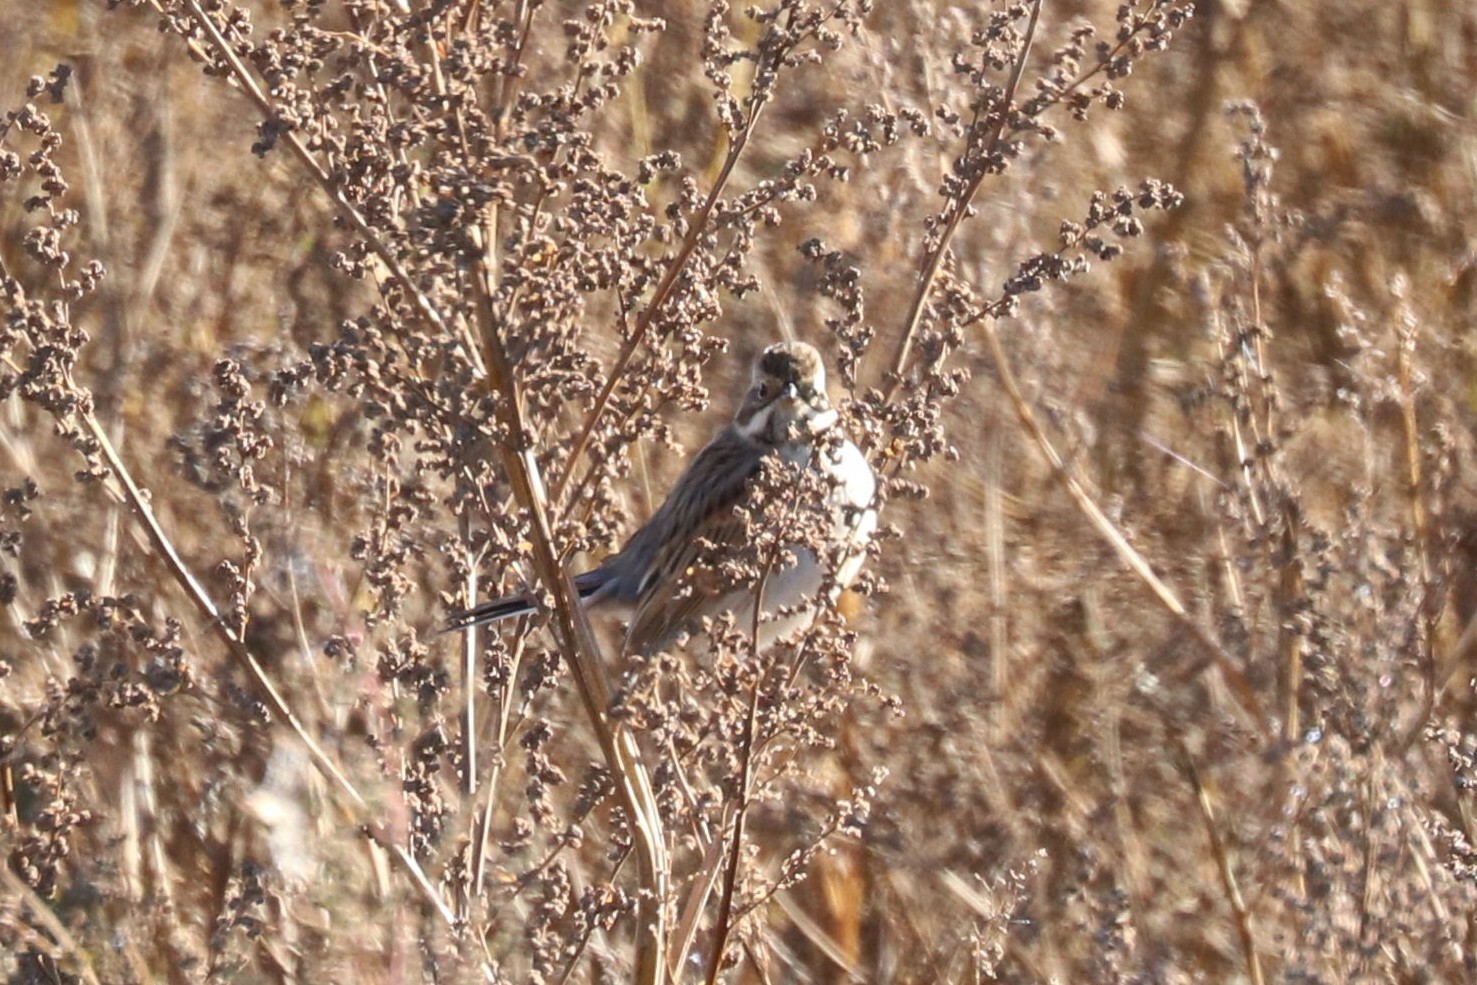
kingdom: Animalia
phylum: Chordata
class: Aves
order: Passeriformes
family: Emberizidae
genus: Emberiza
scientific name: Emberiza schoeniclus
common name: Reed bunting
